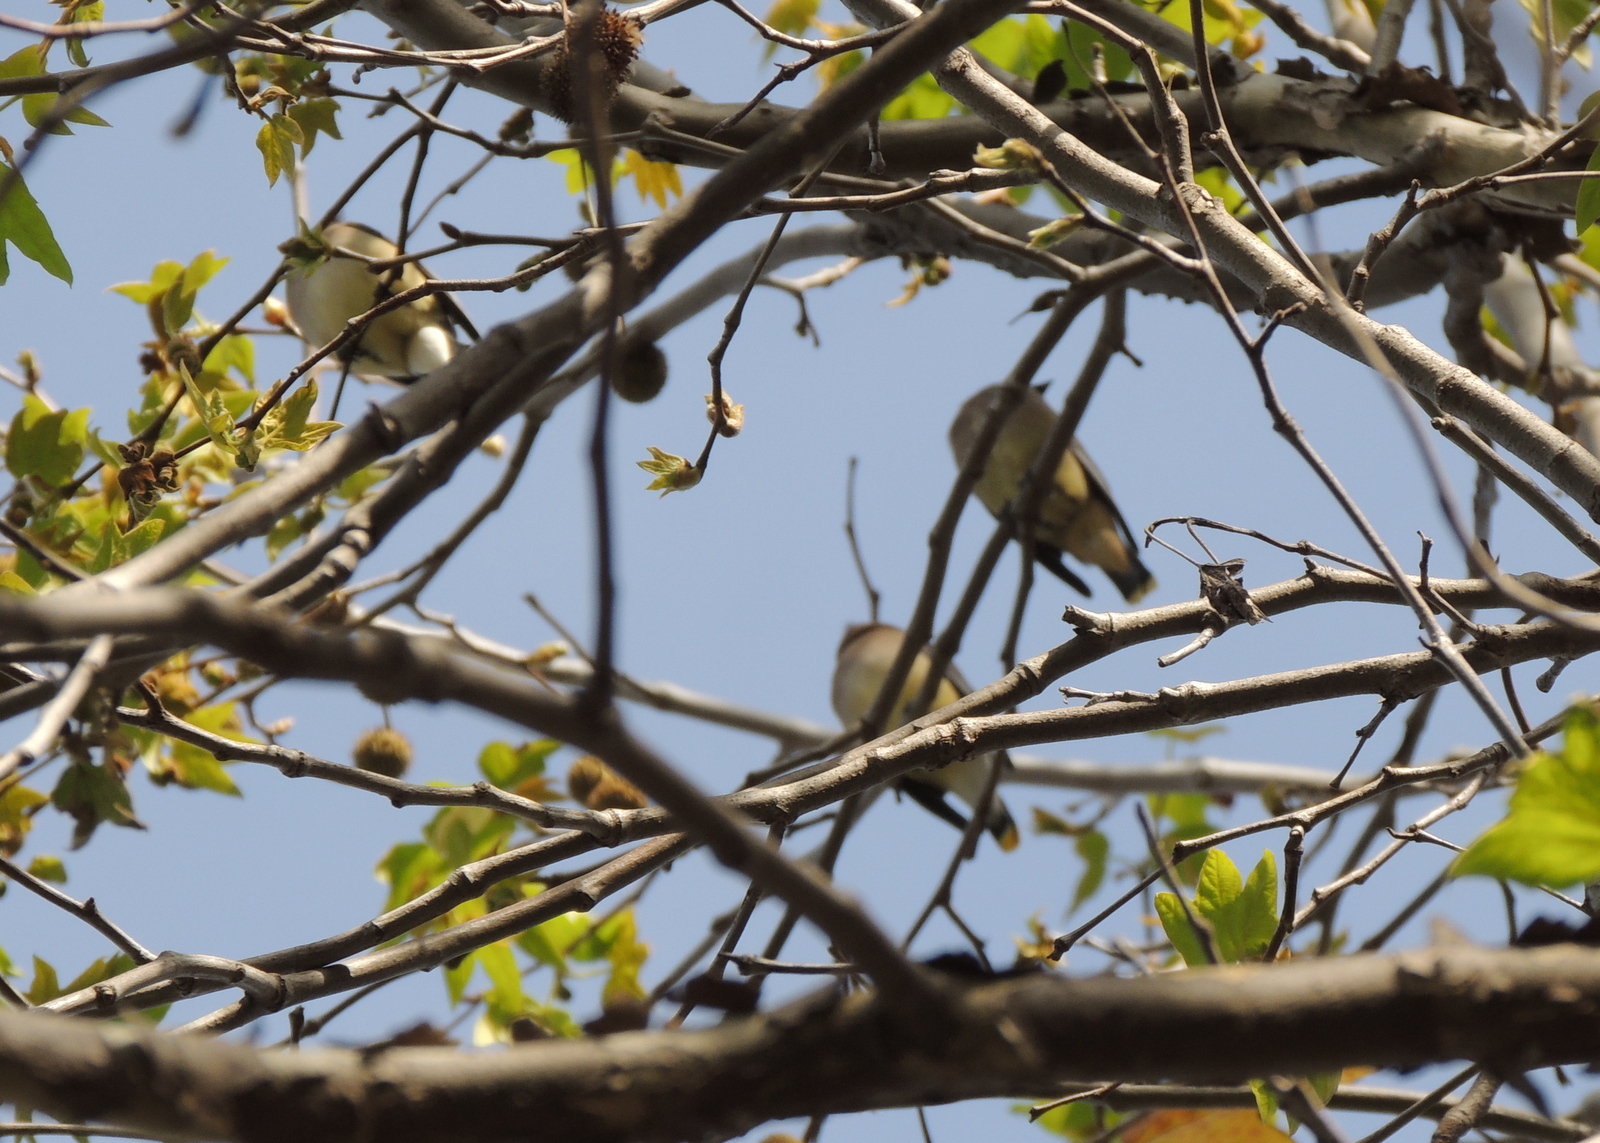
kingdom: Animalia
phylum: Chordata
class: Aves
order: Passeriformes
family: Bombycillidae
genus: Bombycilla
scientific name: Bombycilla cedrorum
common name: Cedar waxwing
